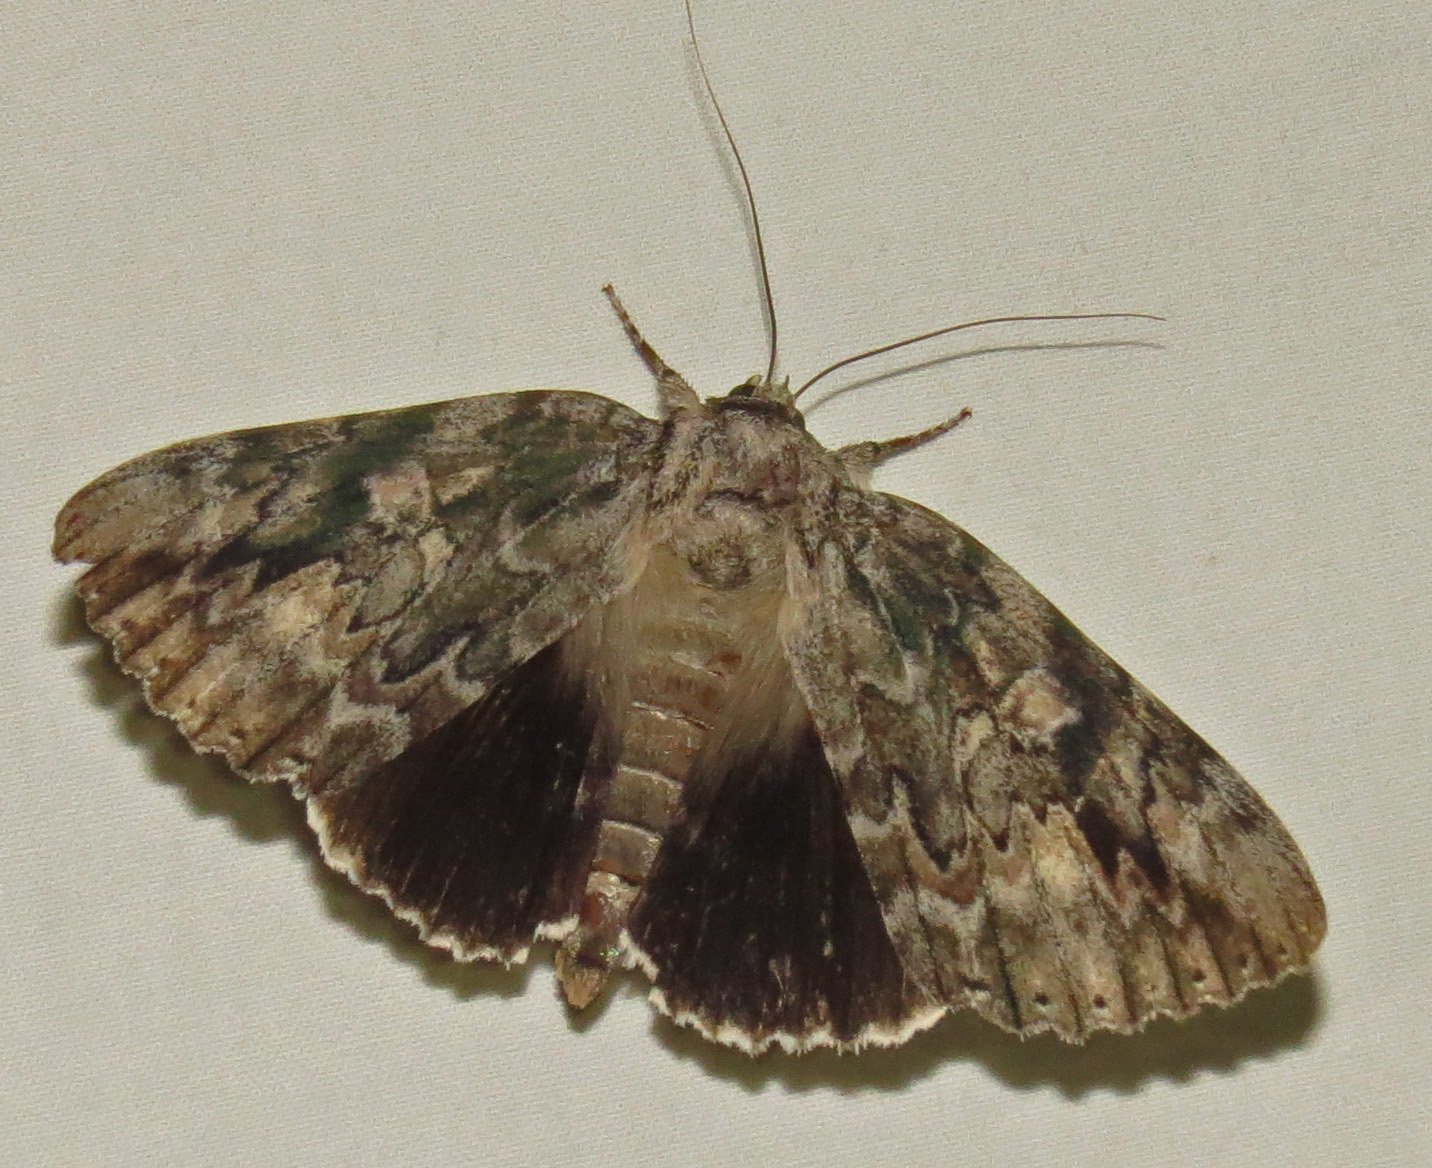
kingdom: Animalia
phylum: Arthropoda
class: Insecta
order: Lepidoptera
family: Erebidae
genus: Catocala
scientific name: Catocala maestosa
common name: Sad underwing
